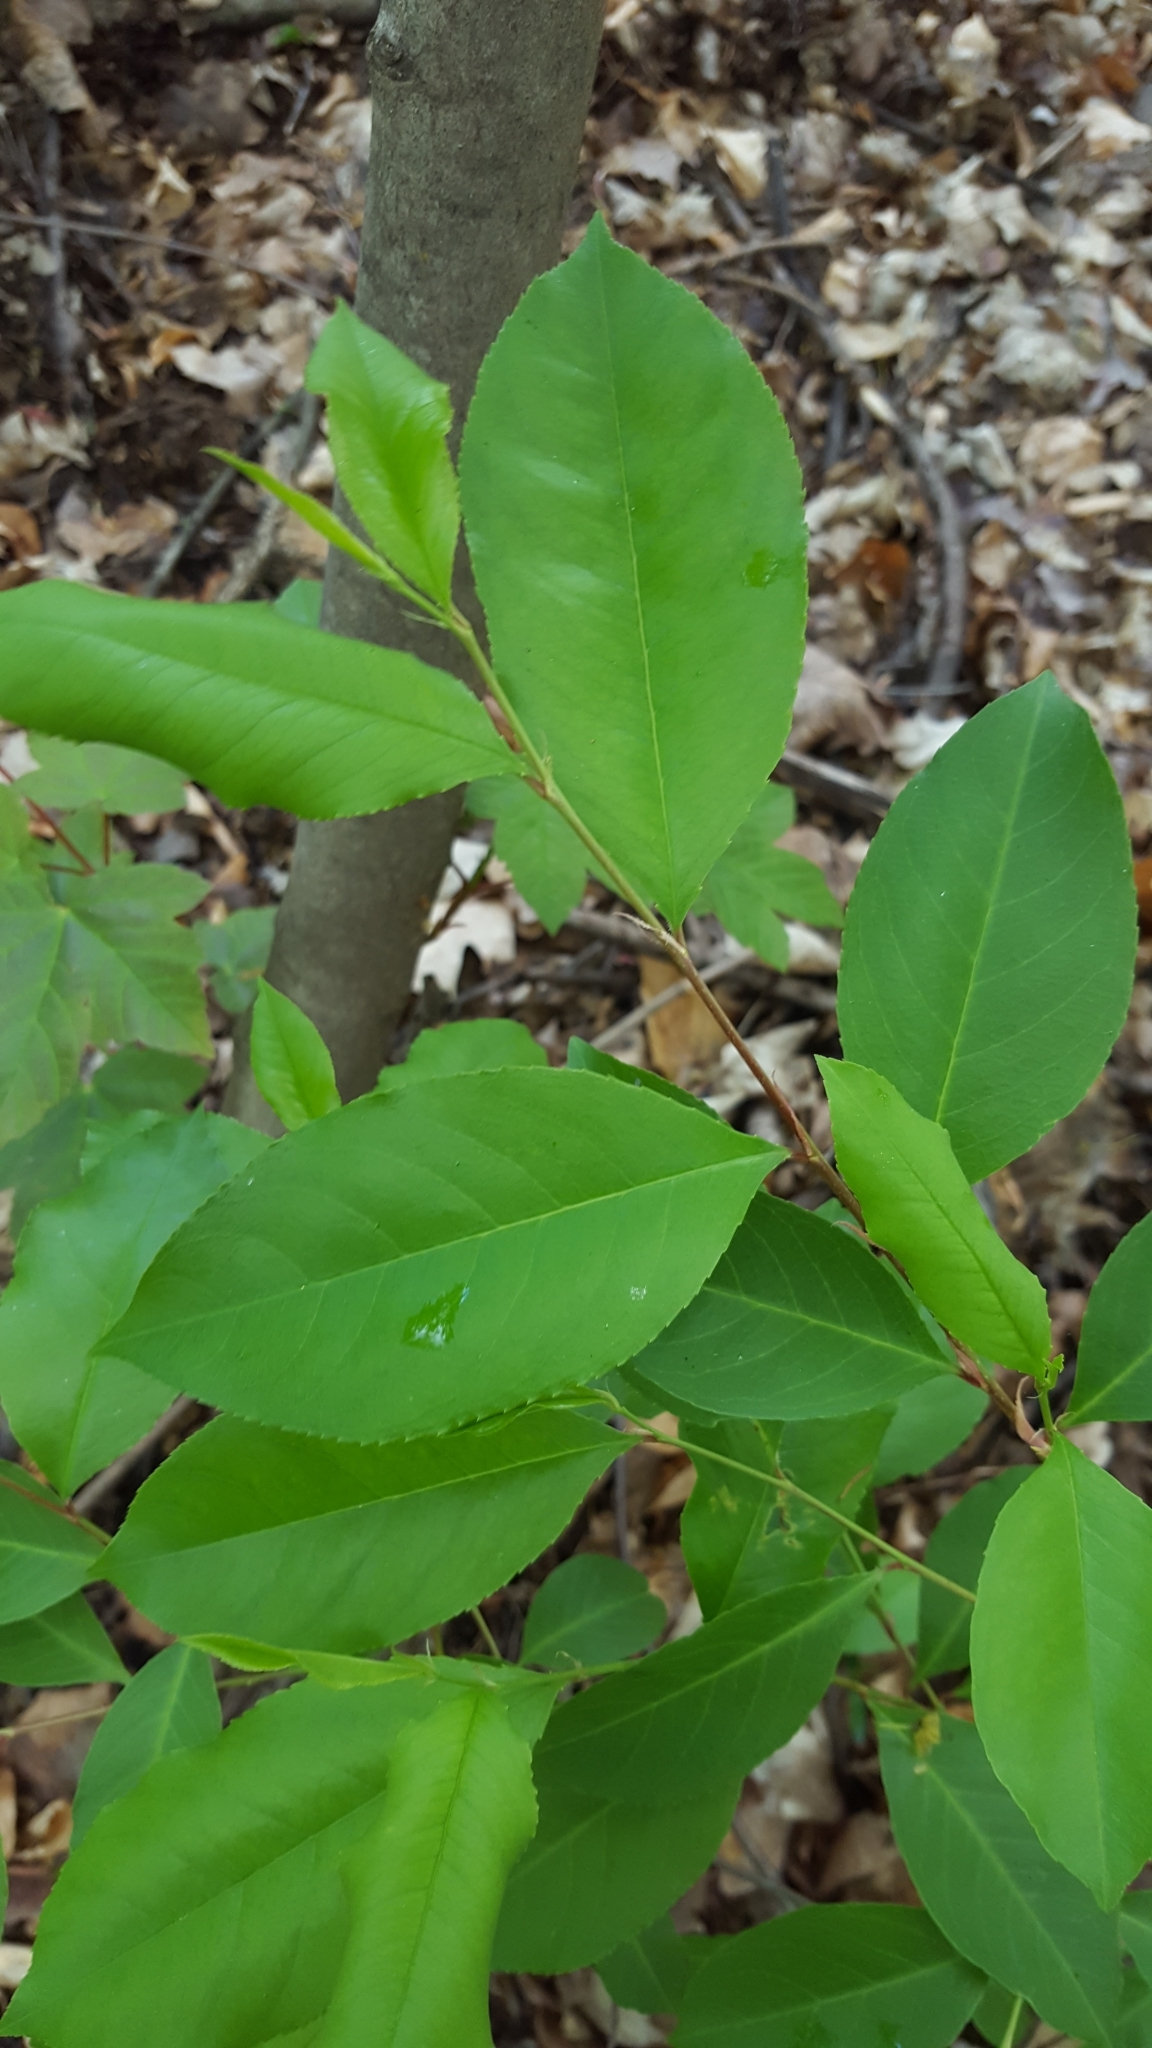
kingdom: Plantae
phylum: Tracheophyta
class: Magnoliopsida
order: Rosales
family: Rosaceae
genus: Prunus
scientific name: Prunus serotina
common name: Black cherry
